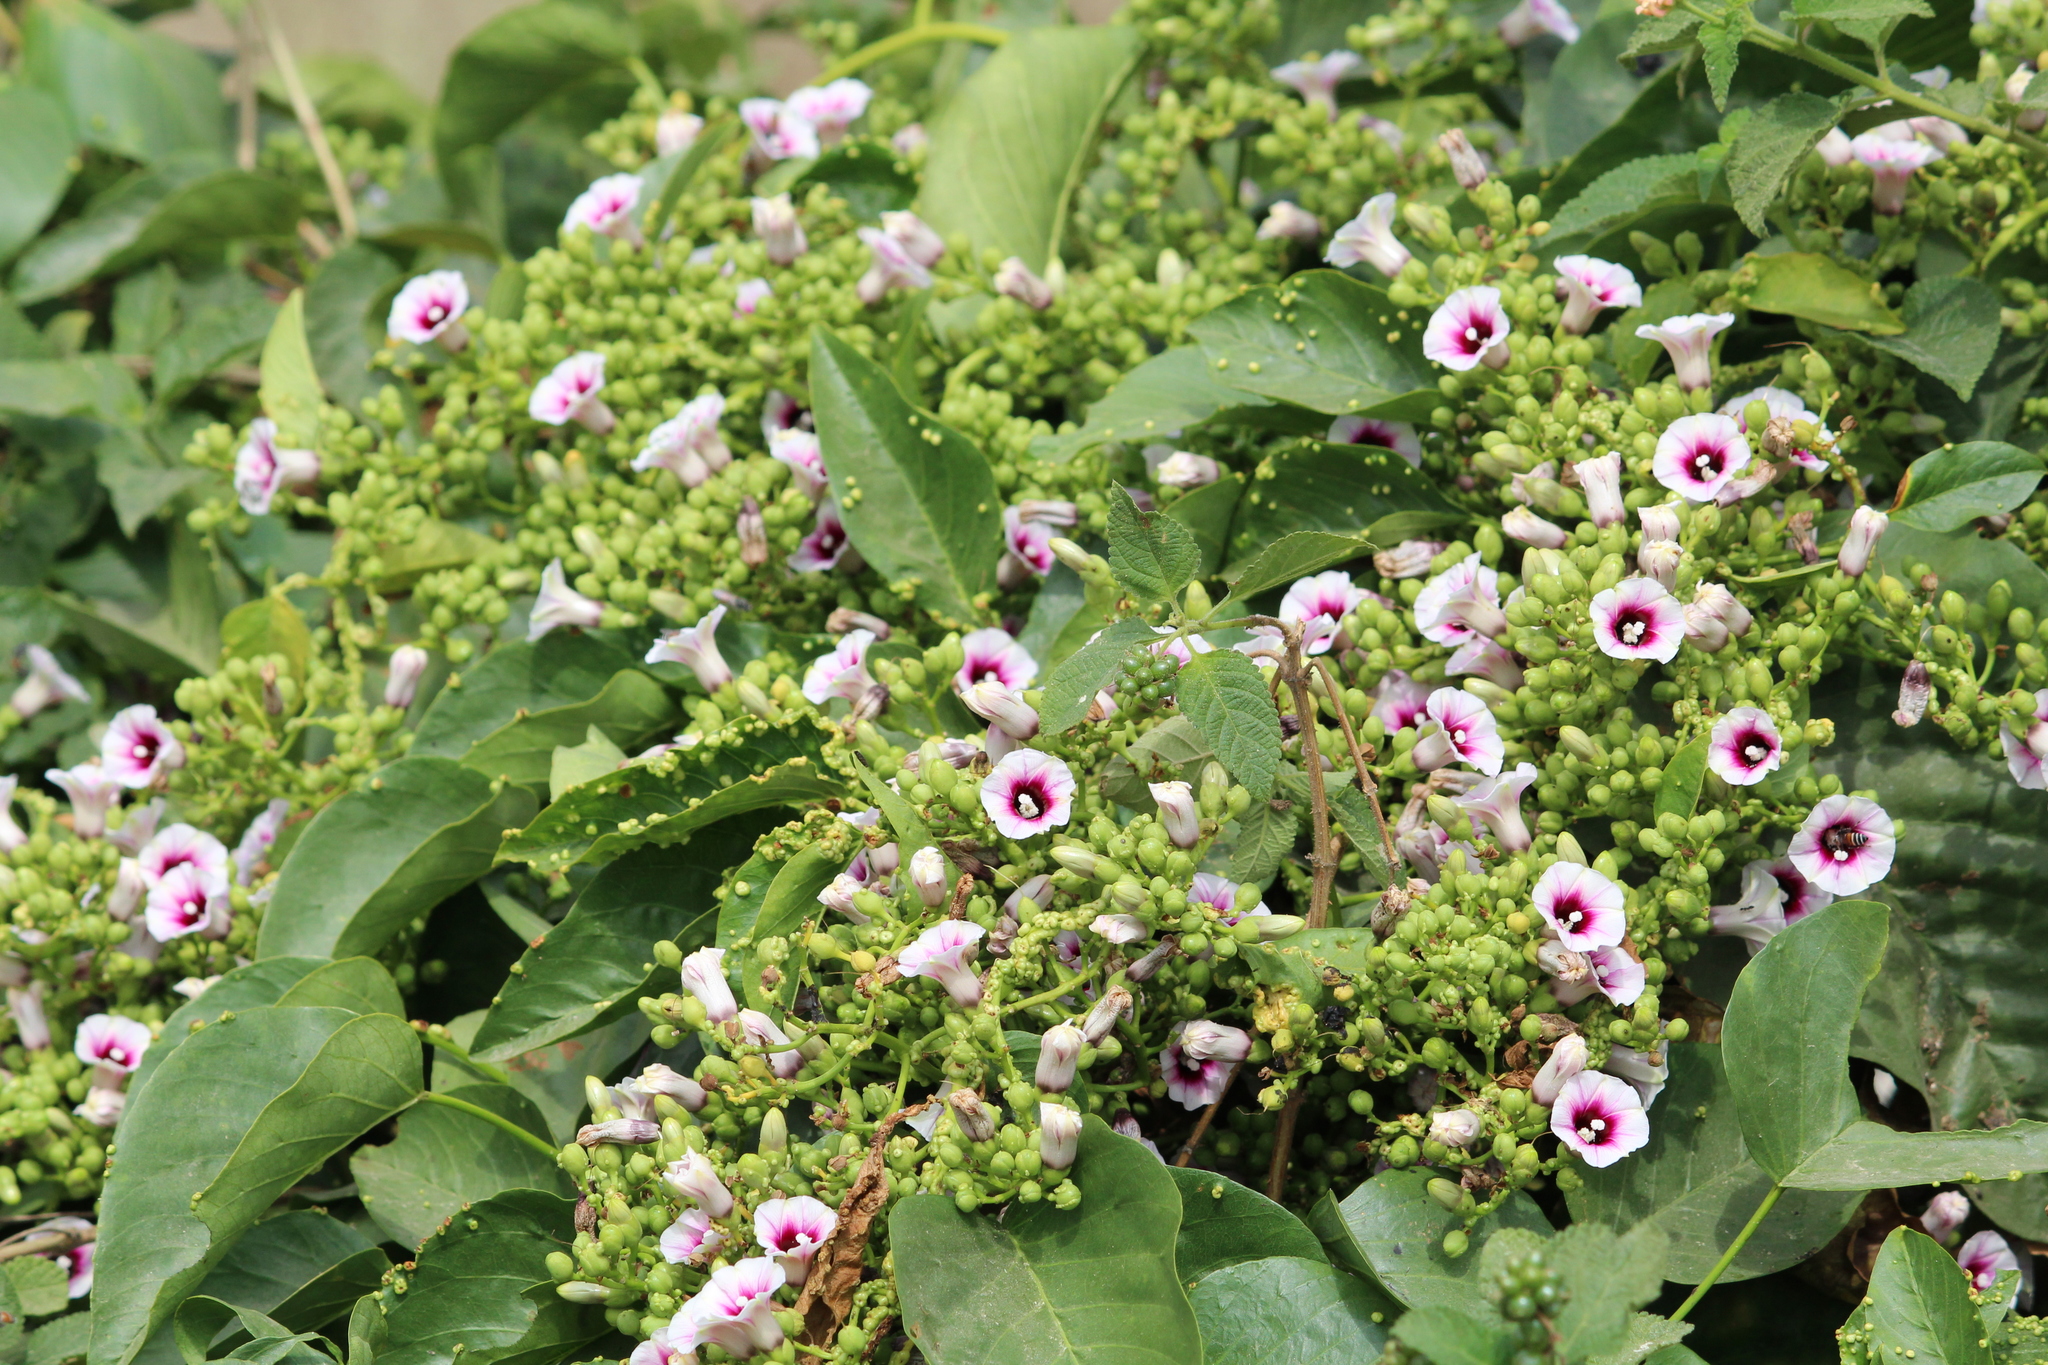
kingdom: Plantae
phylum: Tracheophyta
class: Magnoliopsida
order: Solanales
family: Convolvulaceae
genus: Ipomoea
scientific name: Ipomoea staphylina
